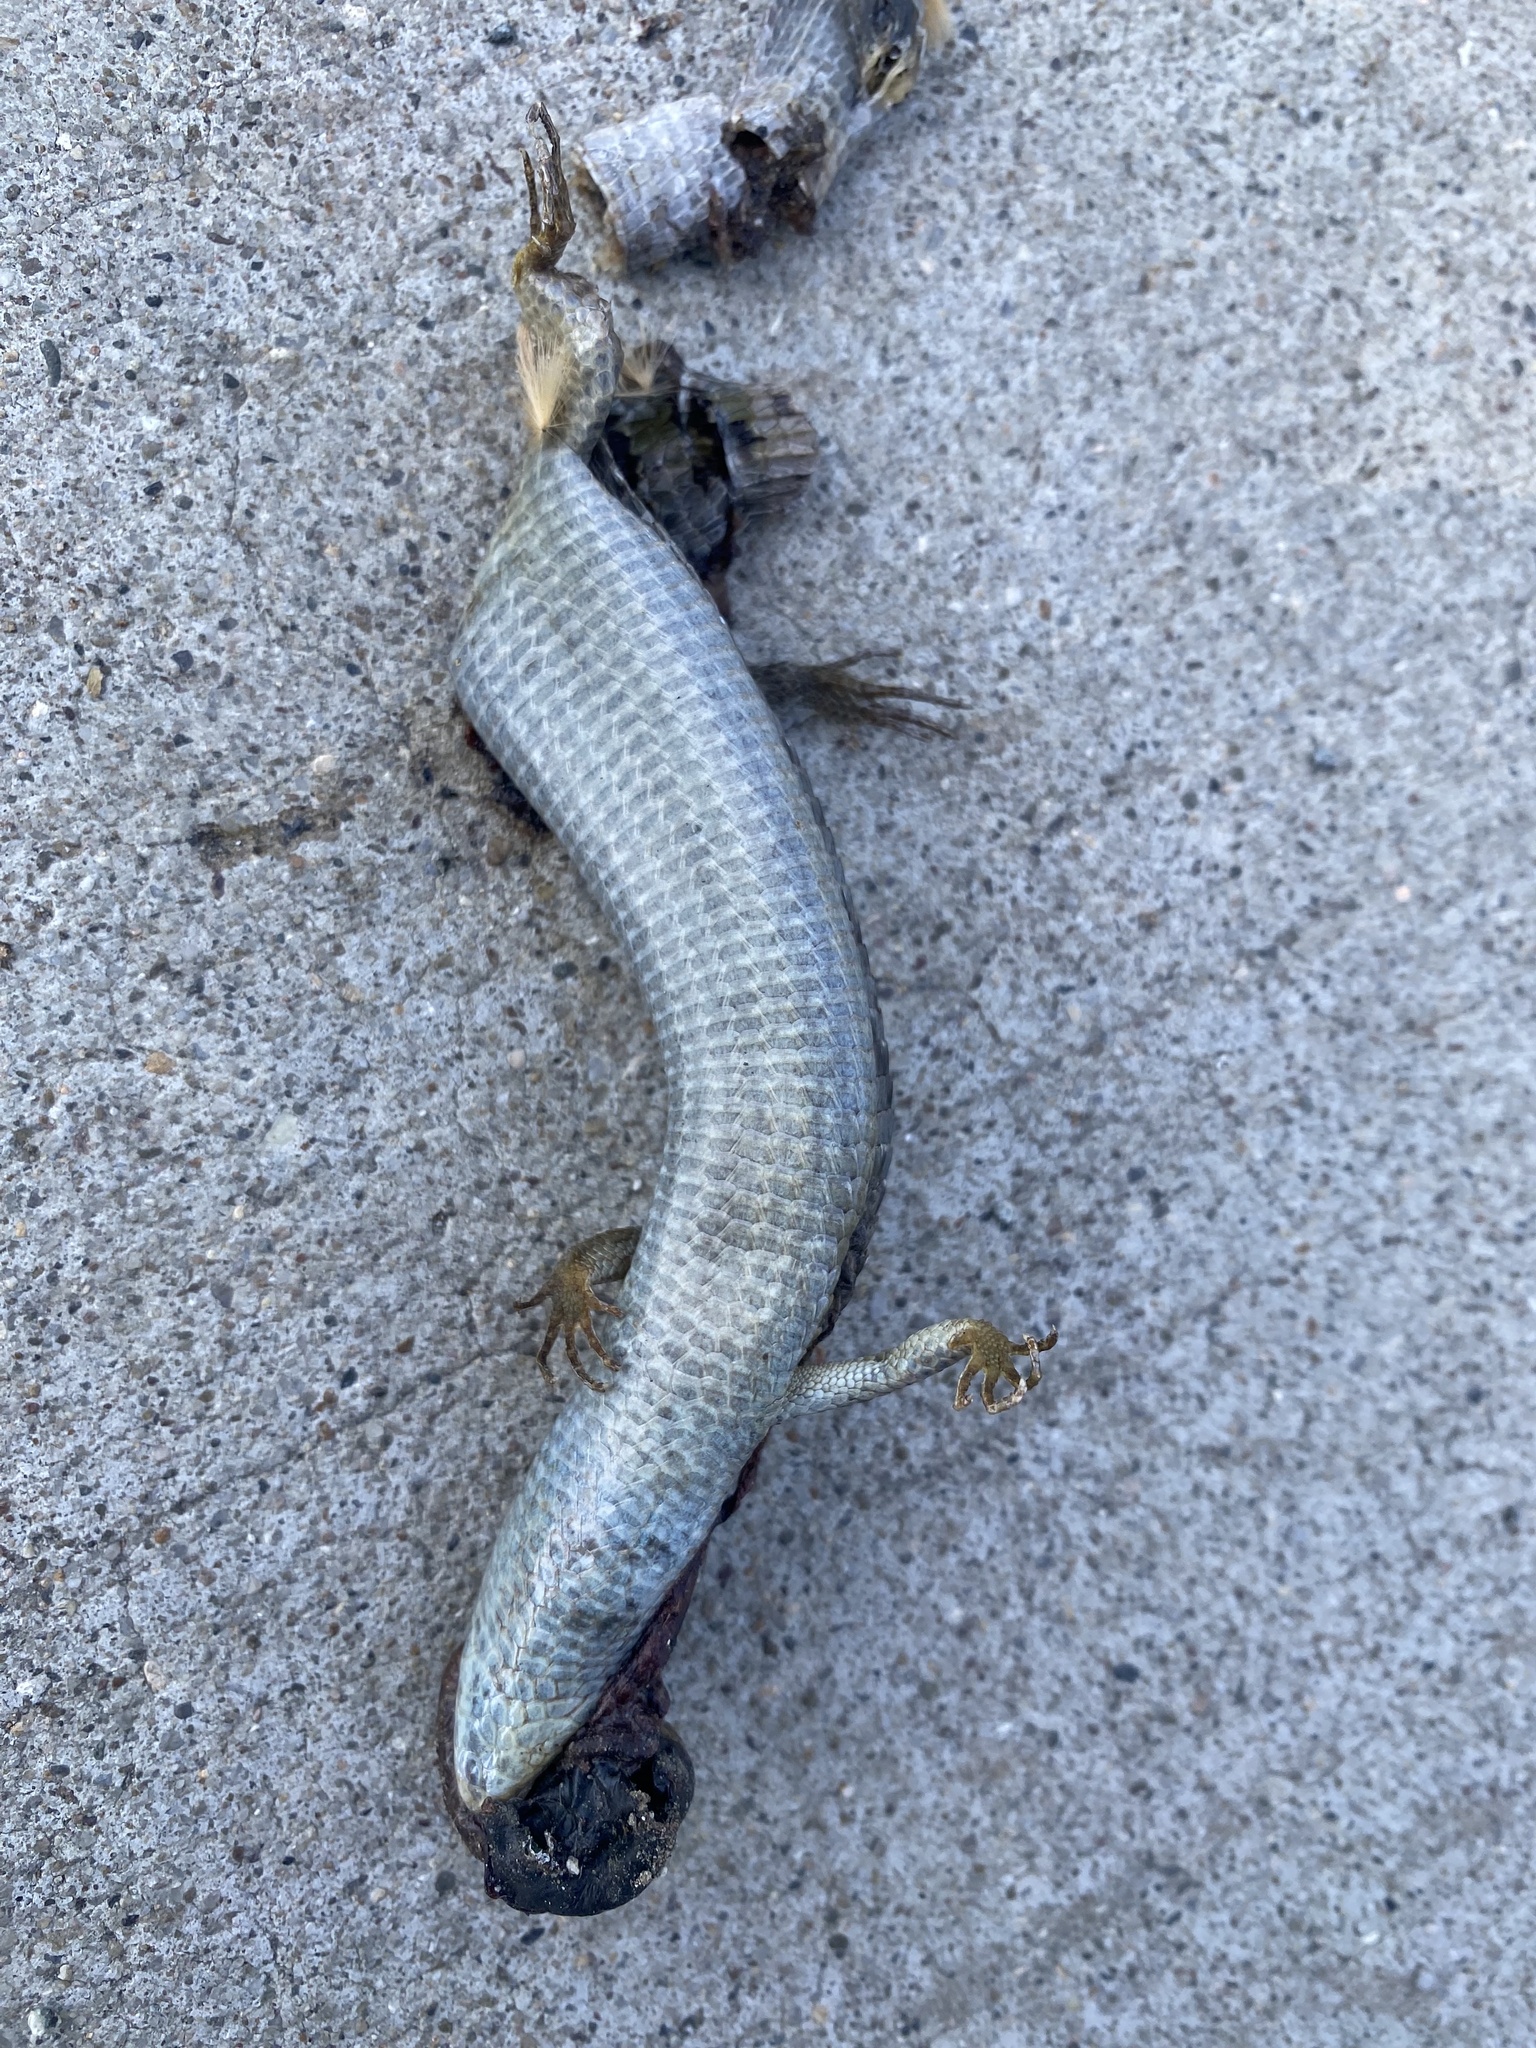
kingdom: Animalia
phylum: Chordata
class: Squamata
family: Anguidae
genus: Elgaria
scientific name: Elgaria multicarinata
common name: Southern alligator lizard
